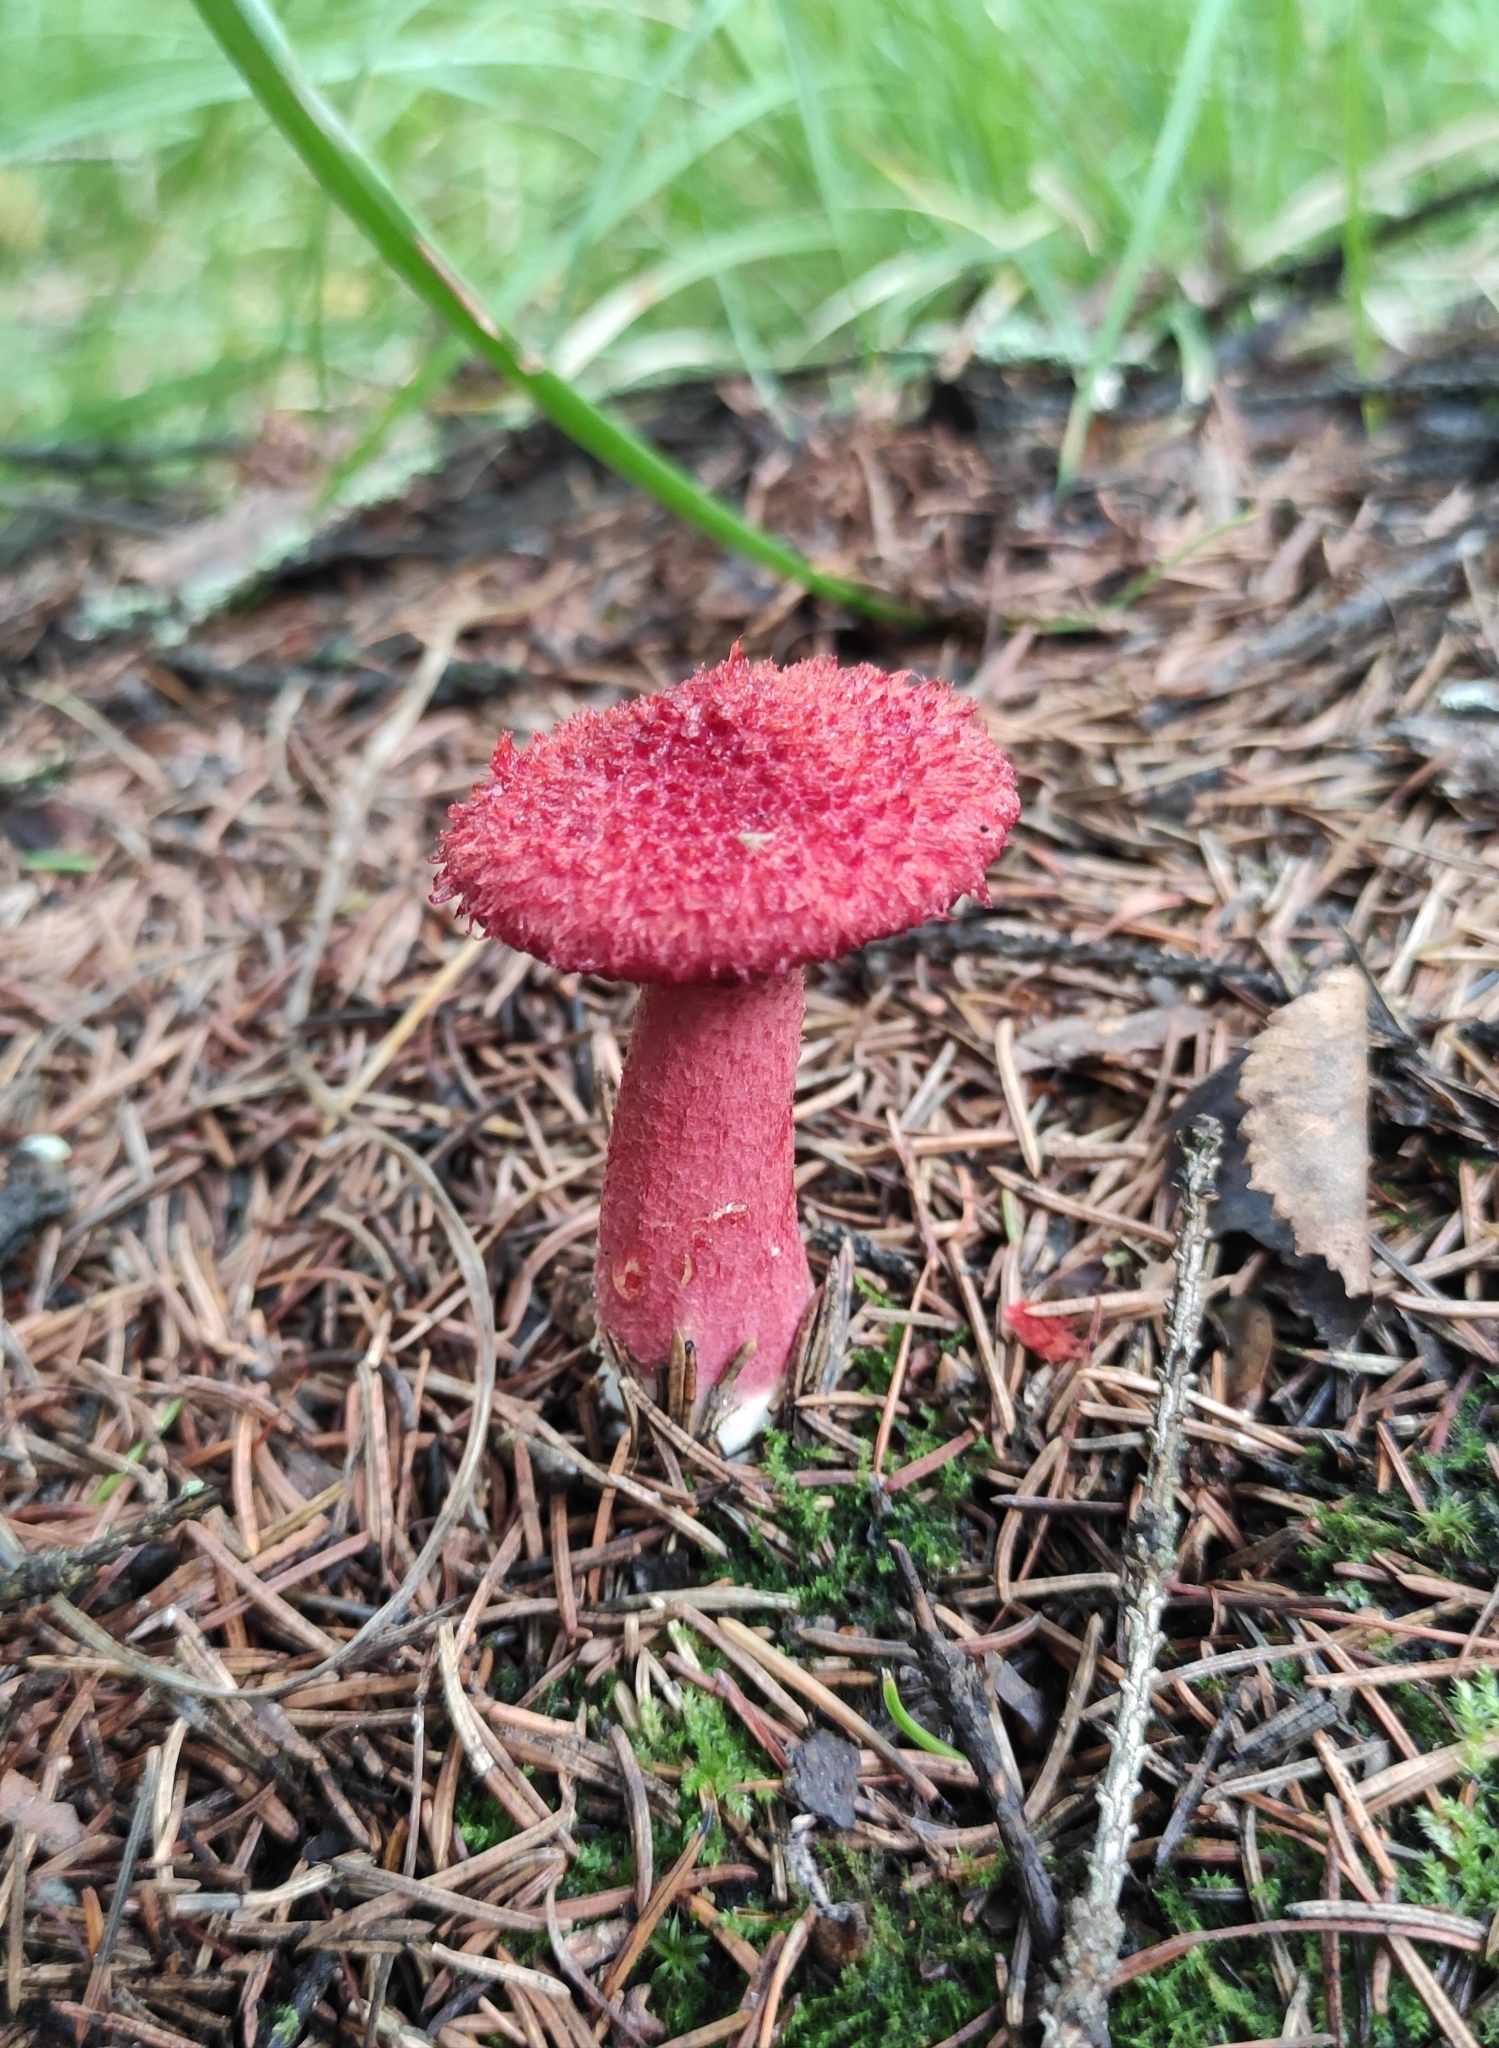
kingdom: Fungi
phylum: Basidiomycota
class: Agaricomycetes
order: Boletales
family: Suillaceae
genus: Boletinus
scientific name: Boletinus asiaticus
